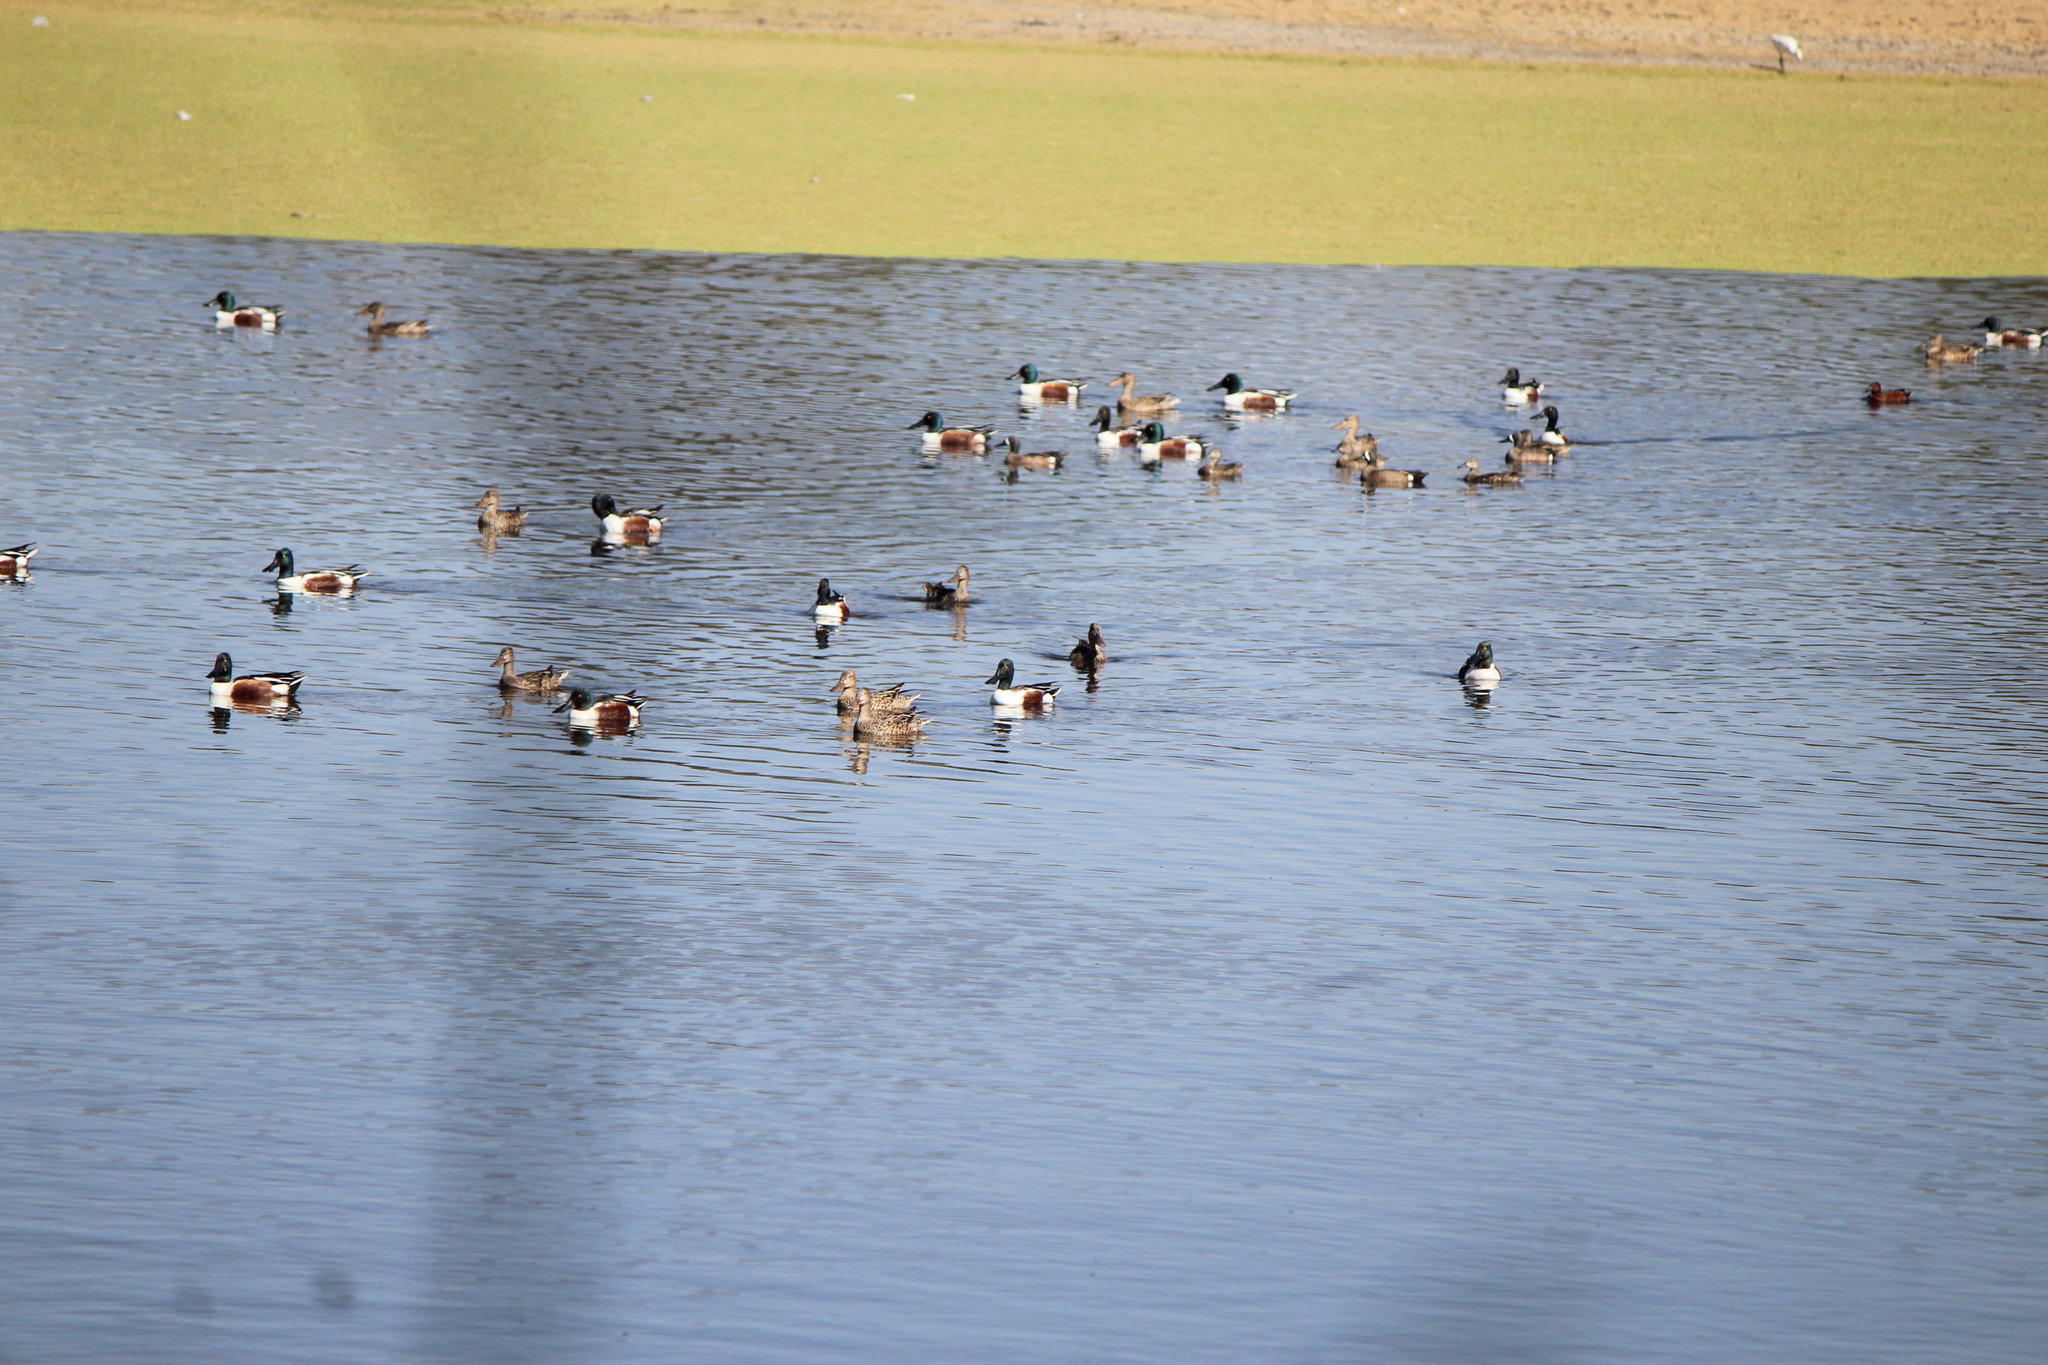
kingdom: Animalia
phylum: Chordata
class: Aves
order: Anseriformes
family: Anatidae
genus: Spatula
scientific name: Spatula clypeata
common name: Northern shoveler
